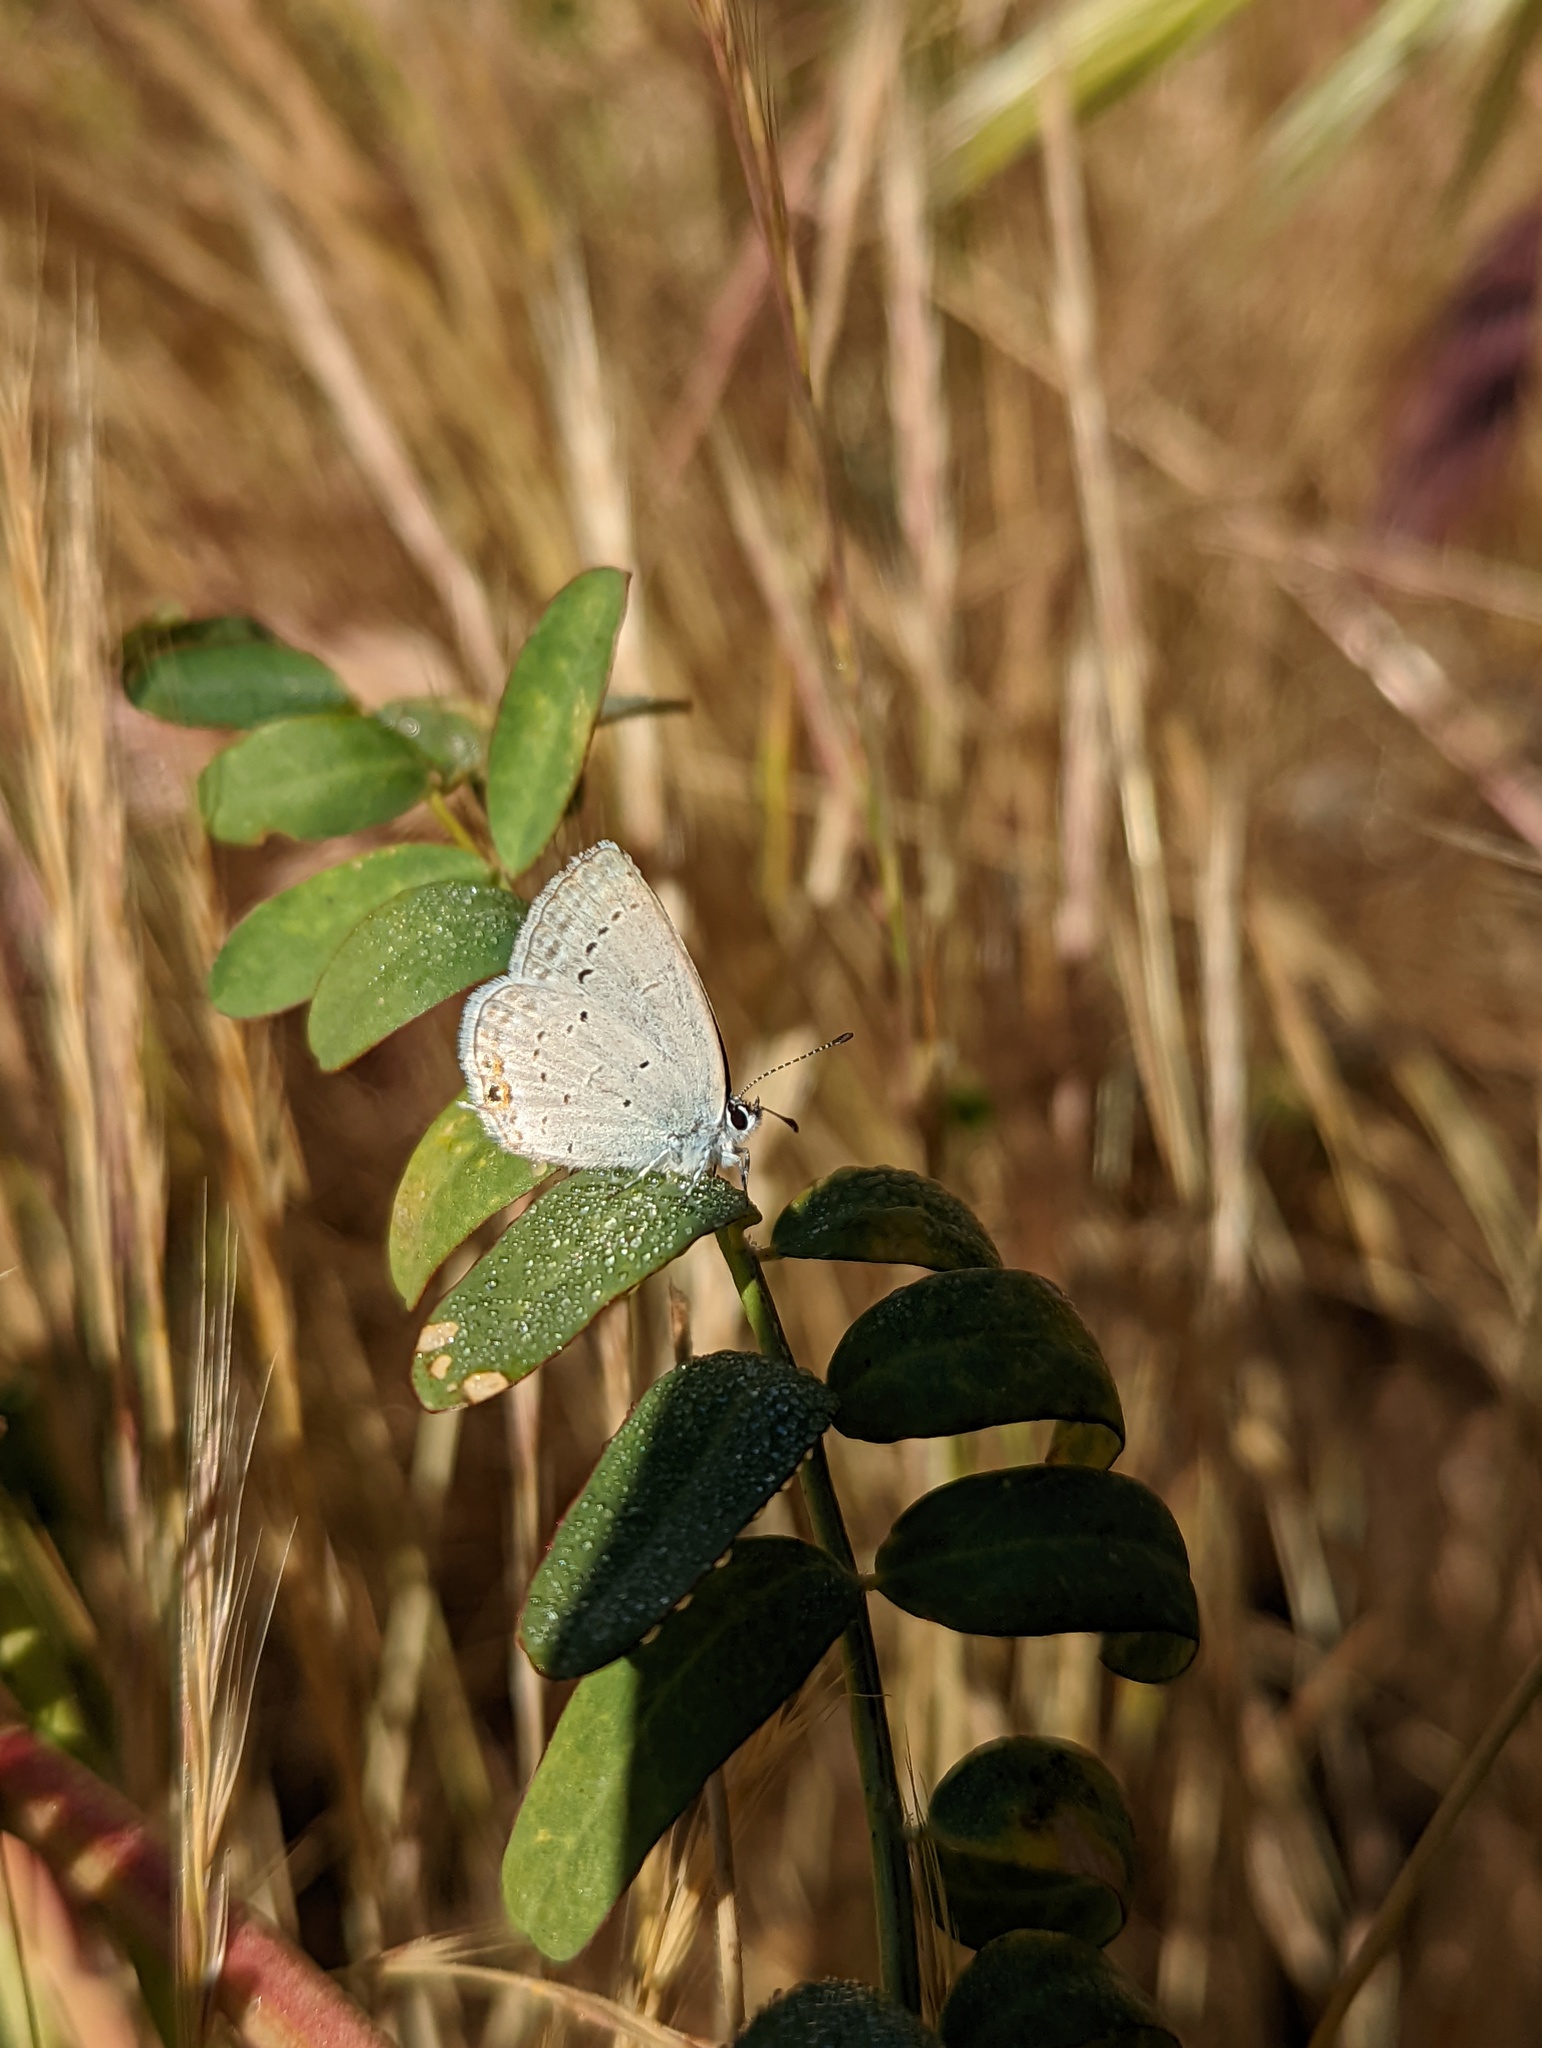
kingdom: Animalia
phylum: Arthropoda
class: Insecta
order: Lepidoptera
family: Lycaenidae
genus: Elkalyce
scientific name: Elkalyce amyntula
